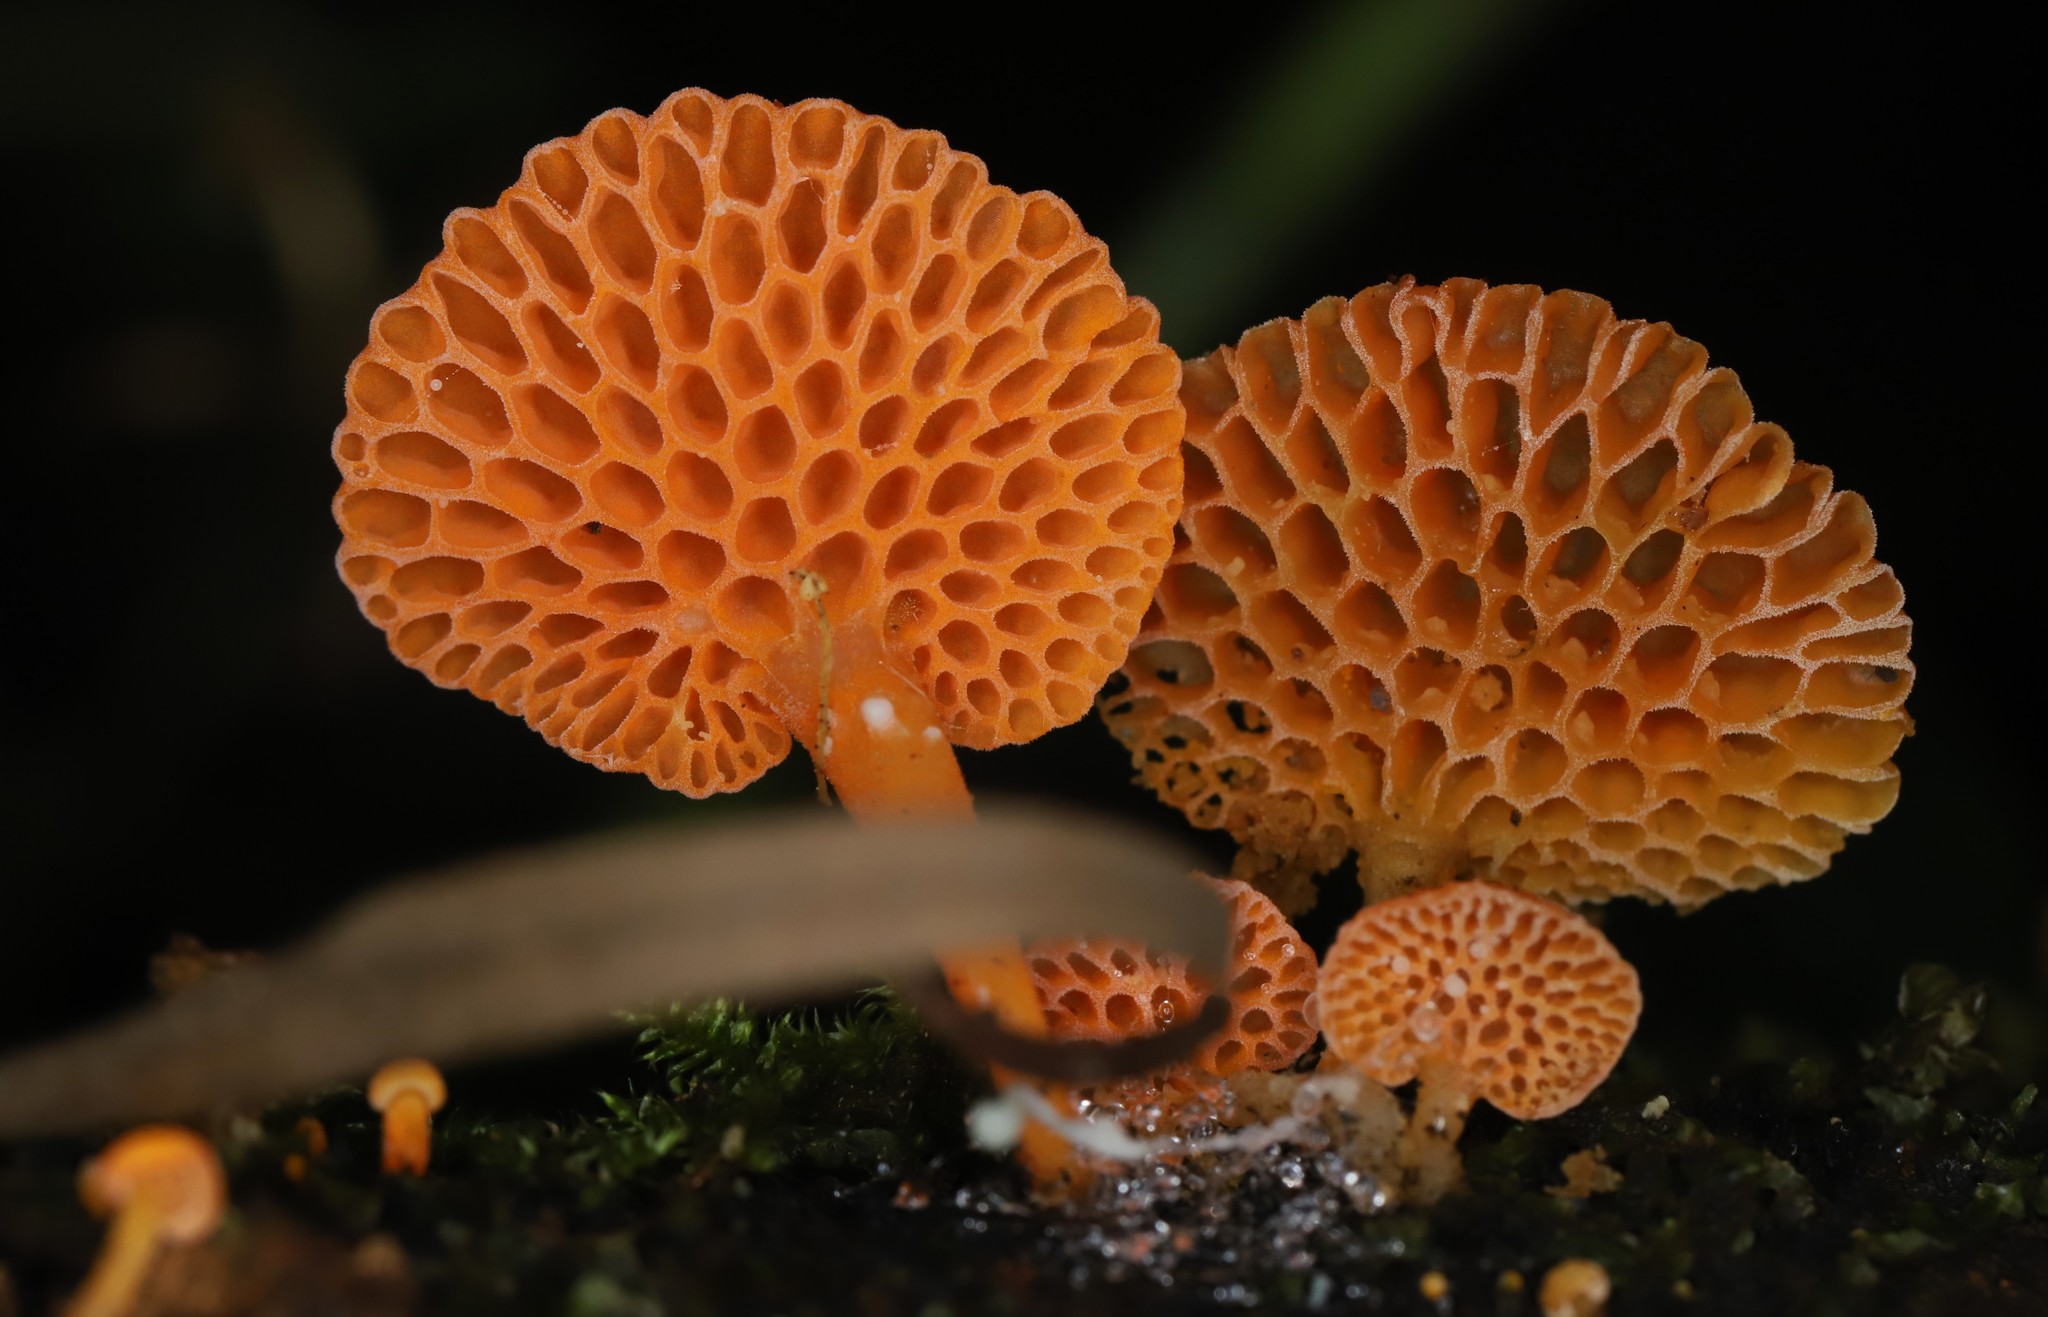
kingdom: Fungi
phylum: Basidiomycota
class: Agaricomycetes
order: Agaricales
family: Mycenaceae
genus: Favolaschia
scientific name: Favolaschia claudopus
